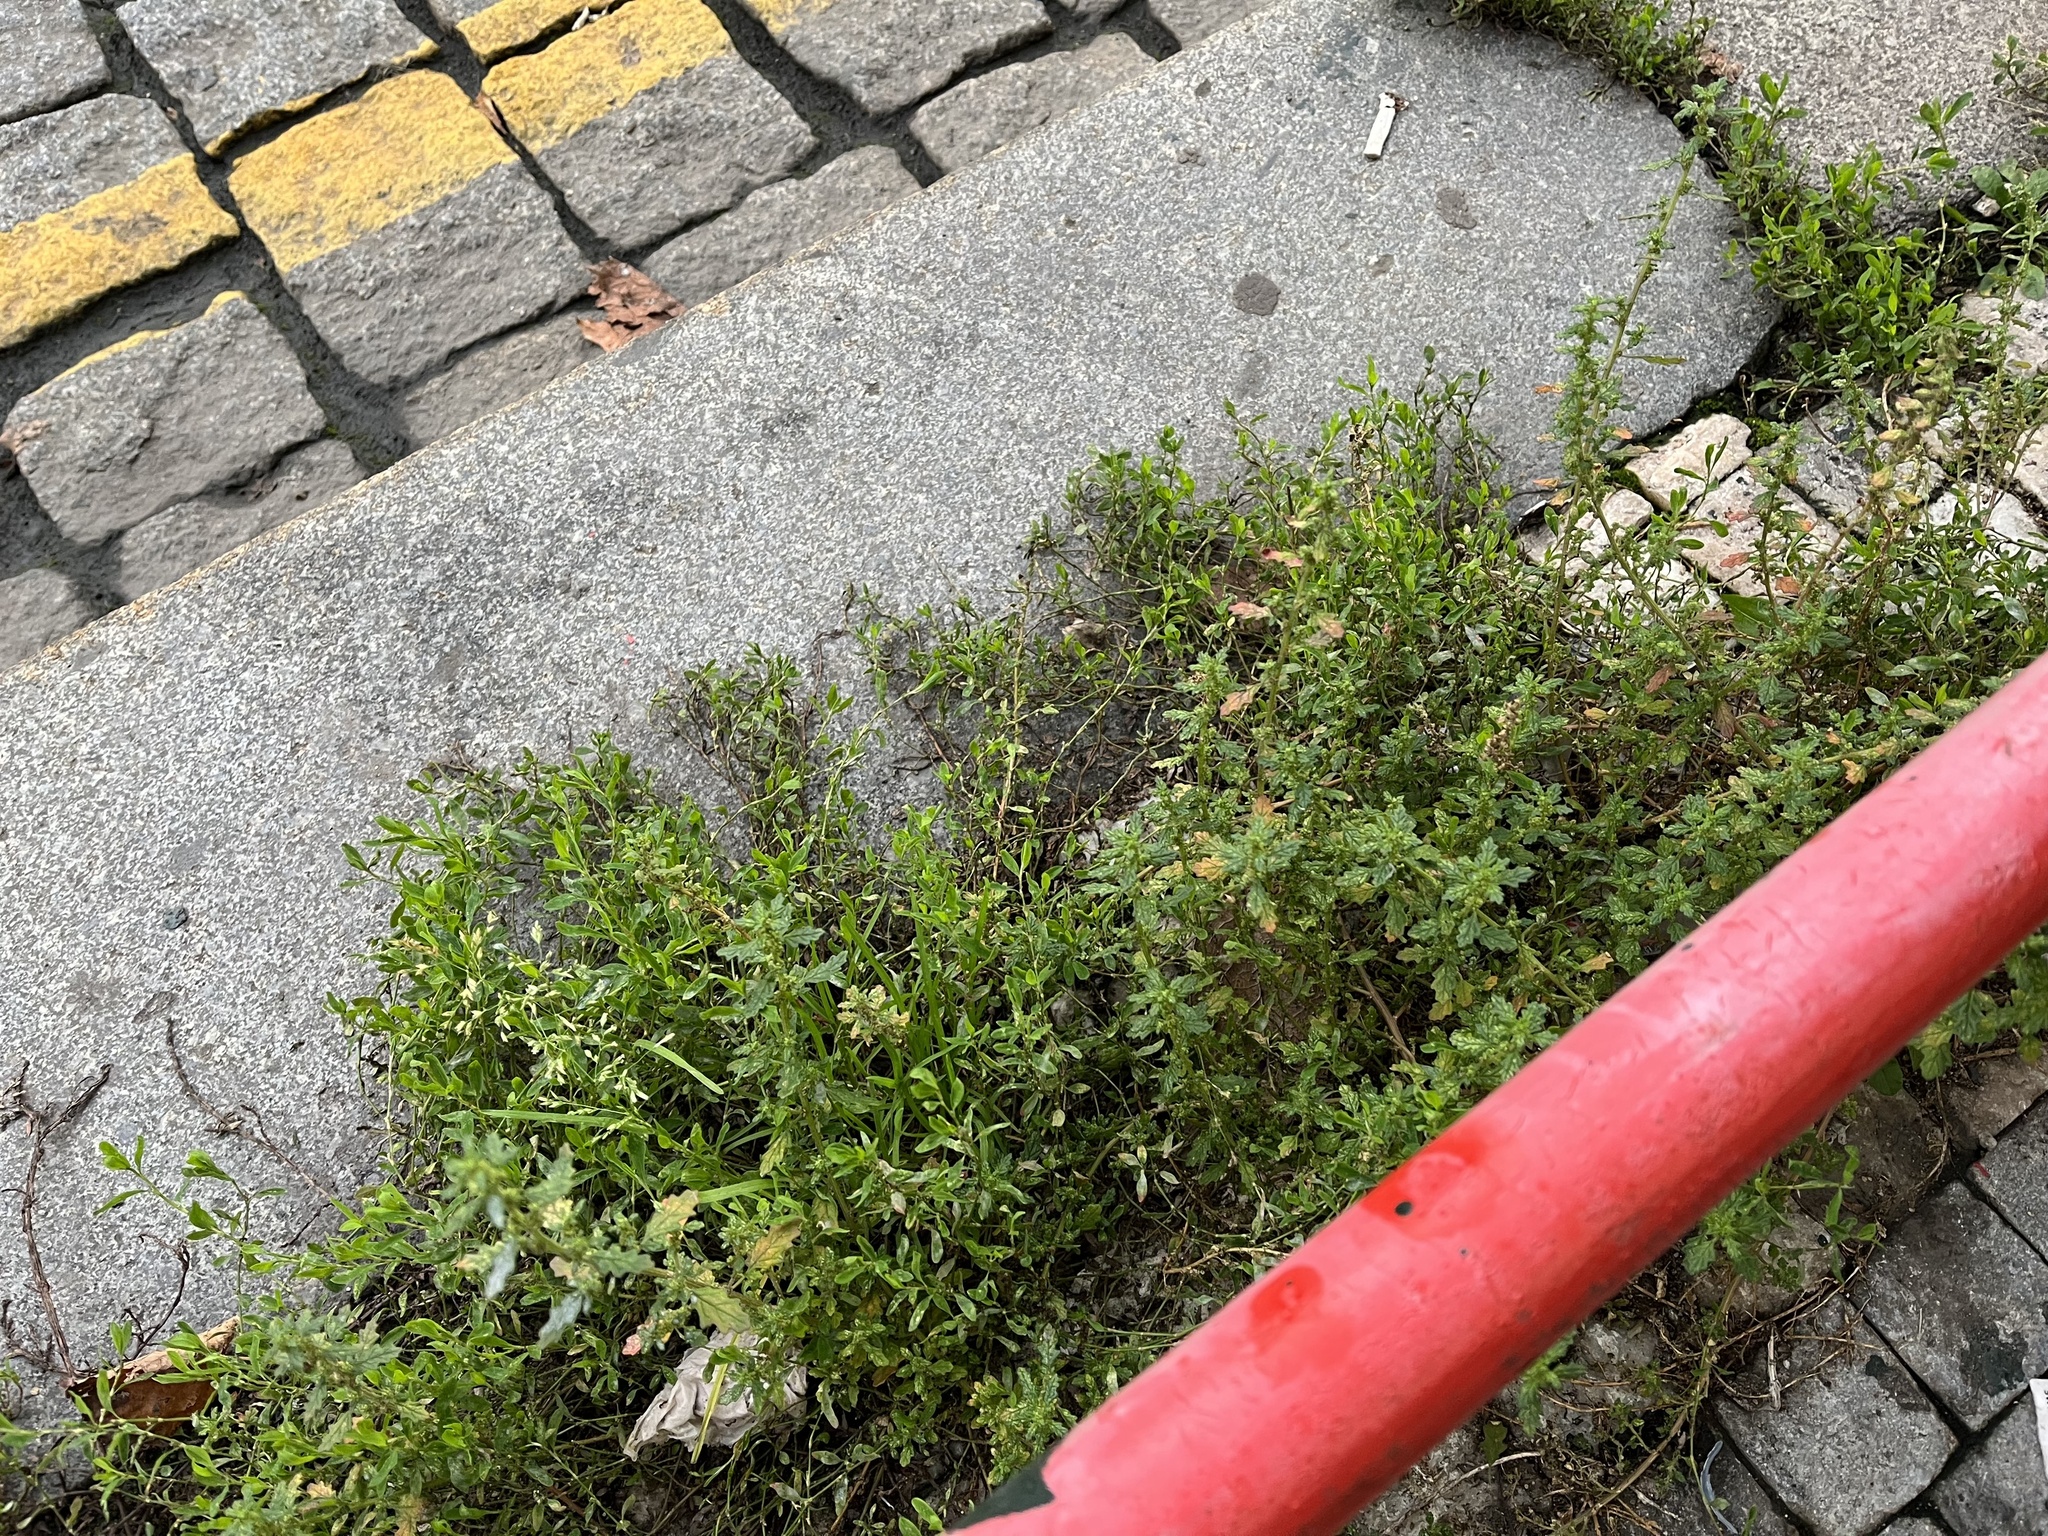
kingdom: Plantae
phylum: Tracheophyta
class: Magnoliopsida
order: Caryophyllales
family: Amaranthaceae
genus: Dysphania
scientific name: Dysphania pumilio
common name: Clammy goosefoot
